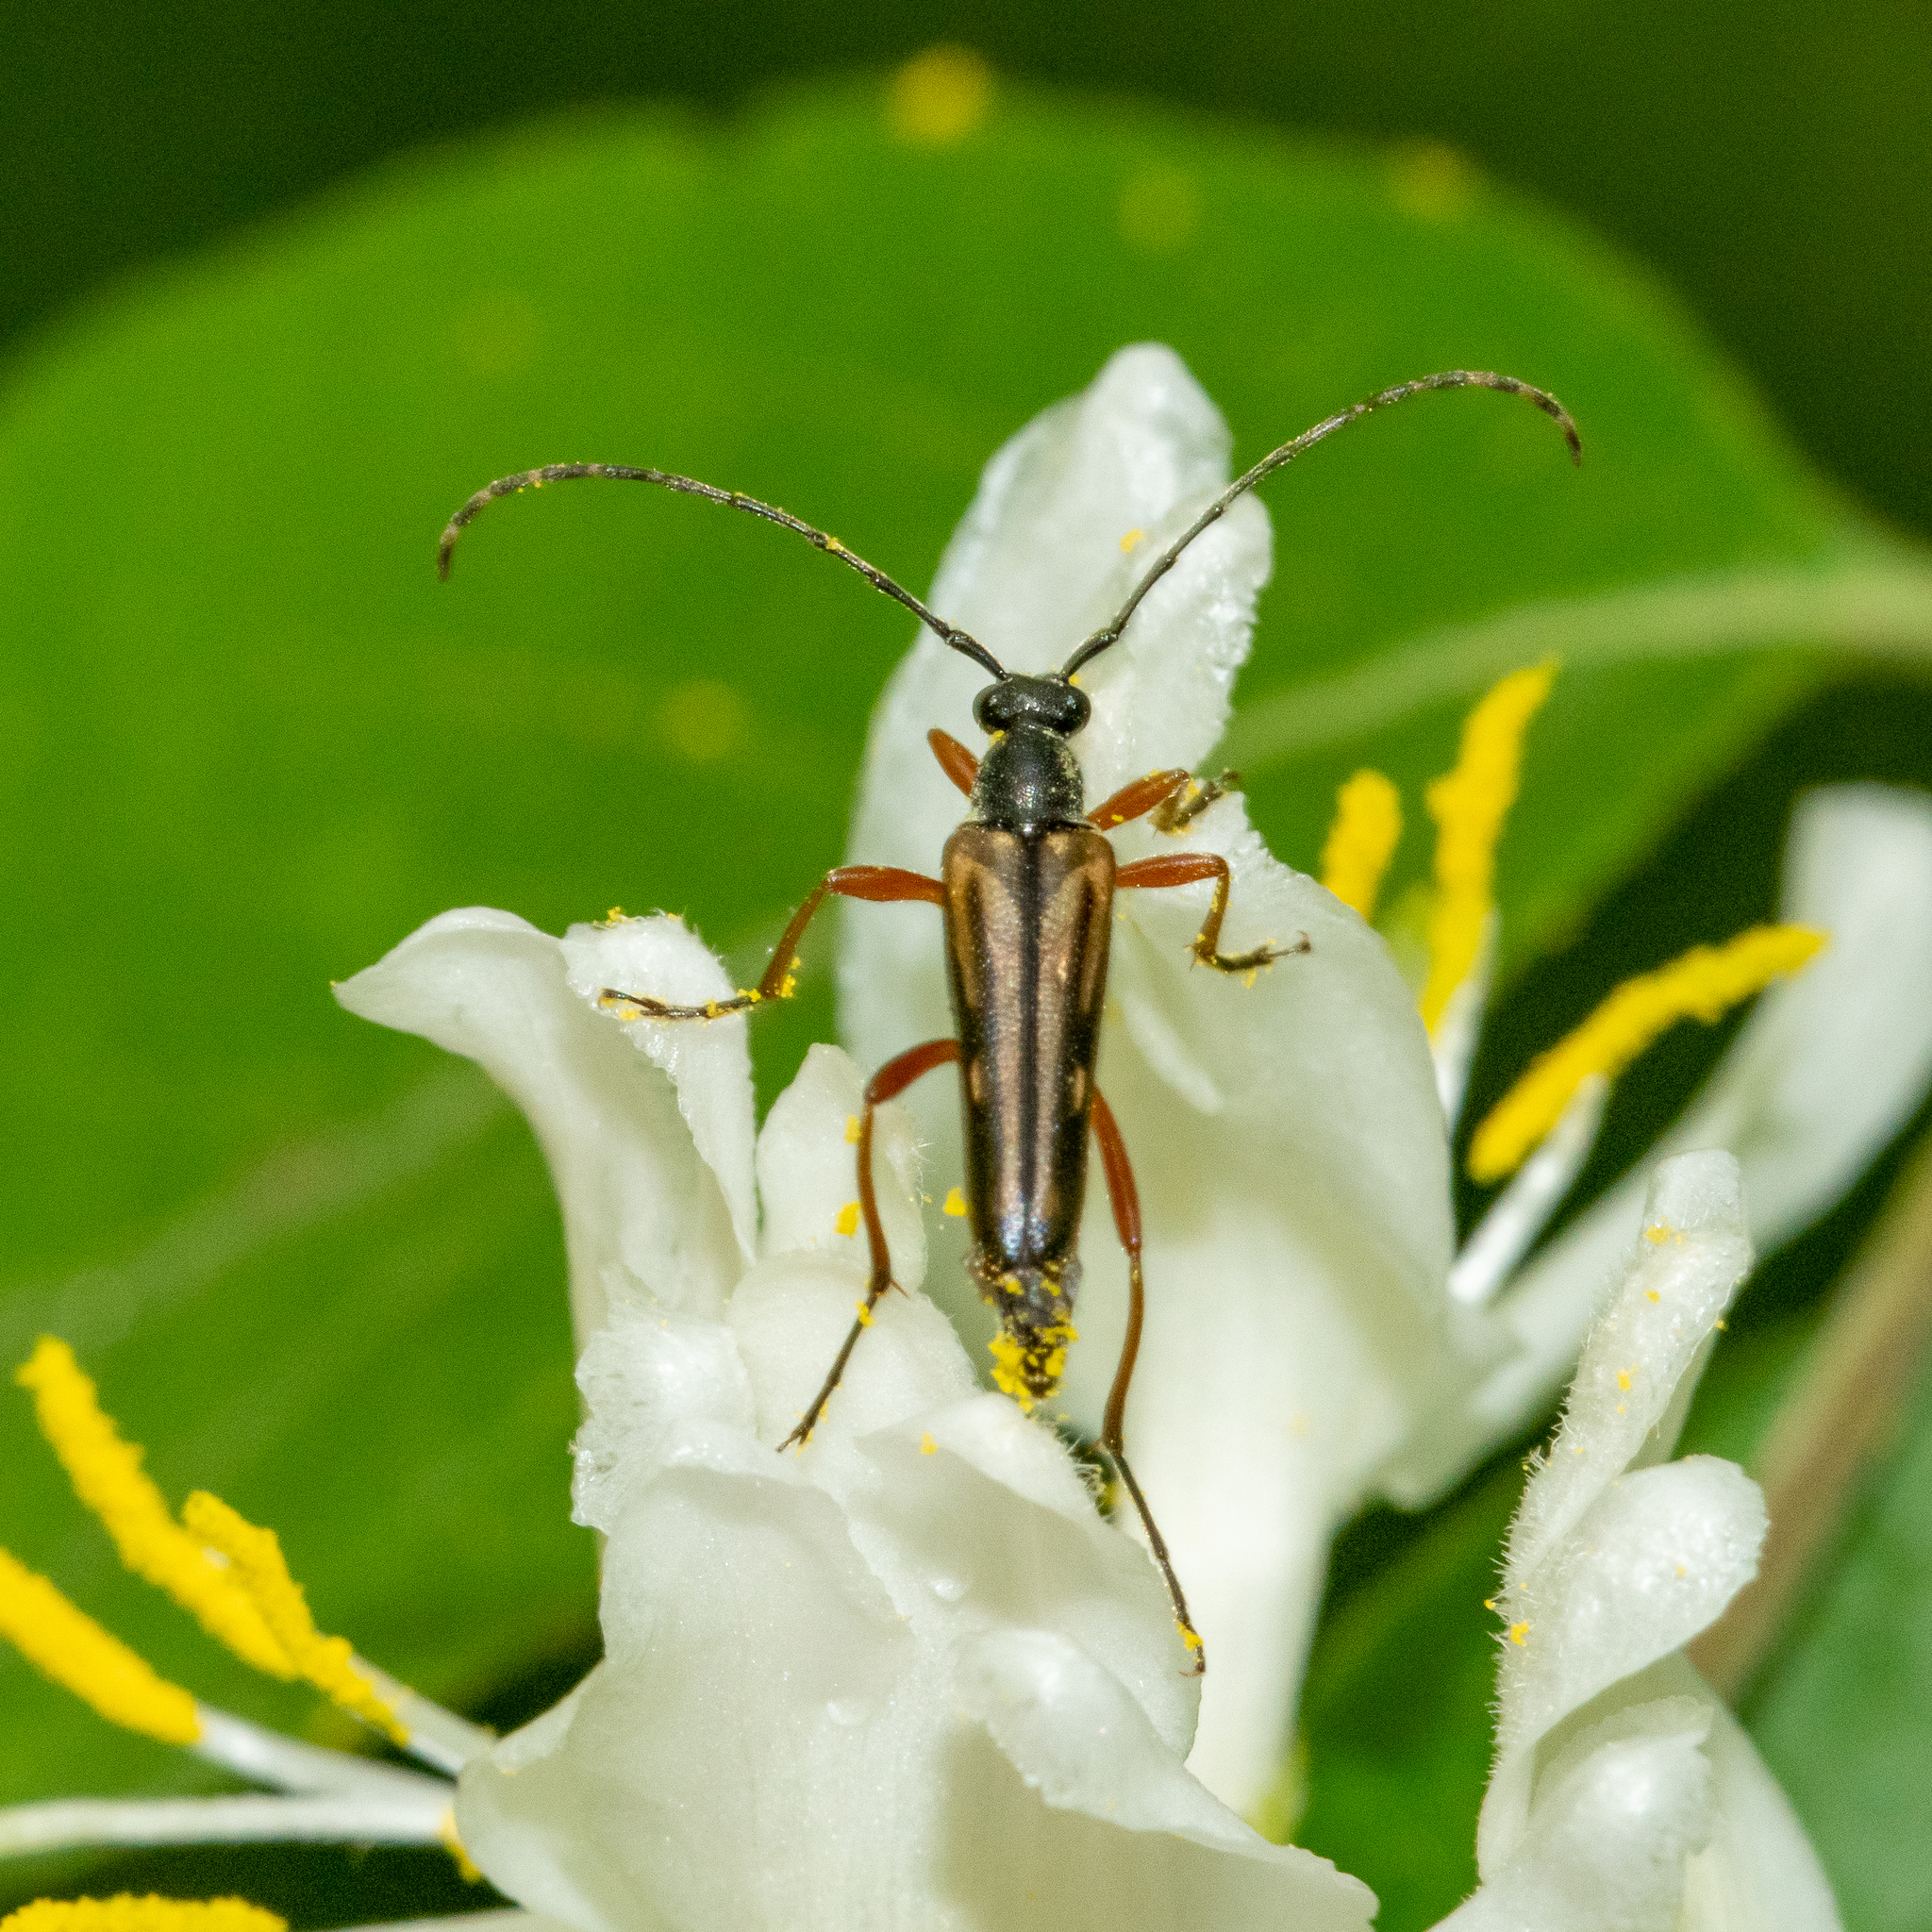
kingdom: Animalia
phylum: Arthropoda
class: Insecta
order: Coleoptera
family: Cerambycidae
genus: Analeptura
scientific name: Analeptura lineola
